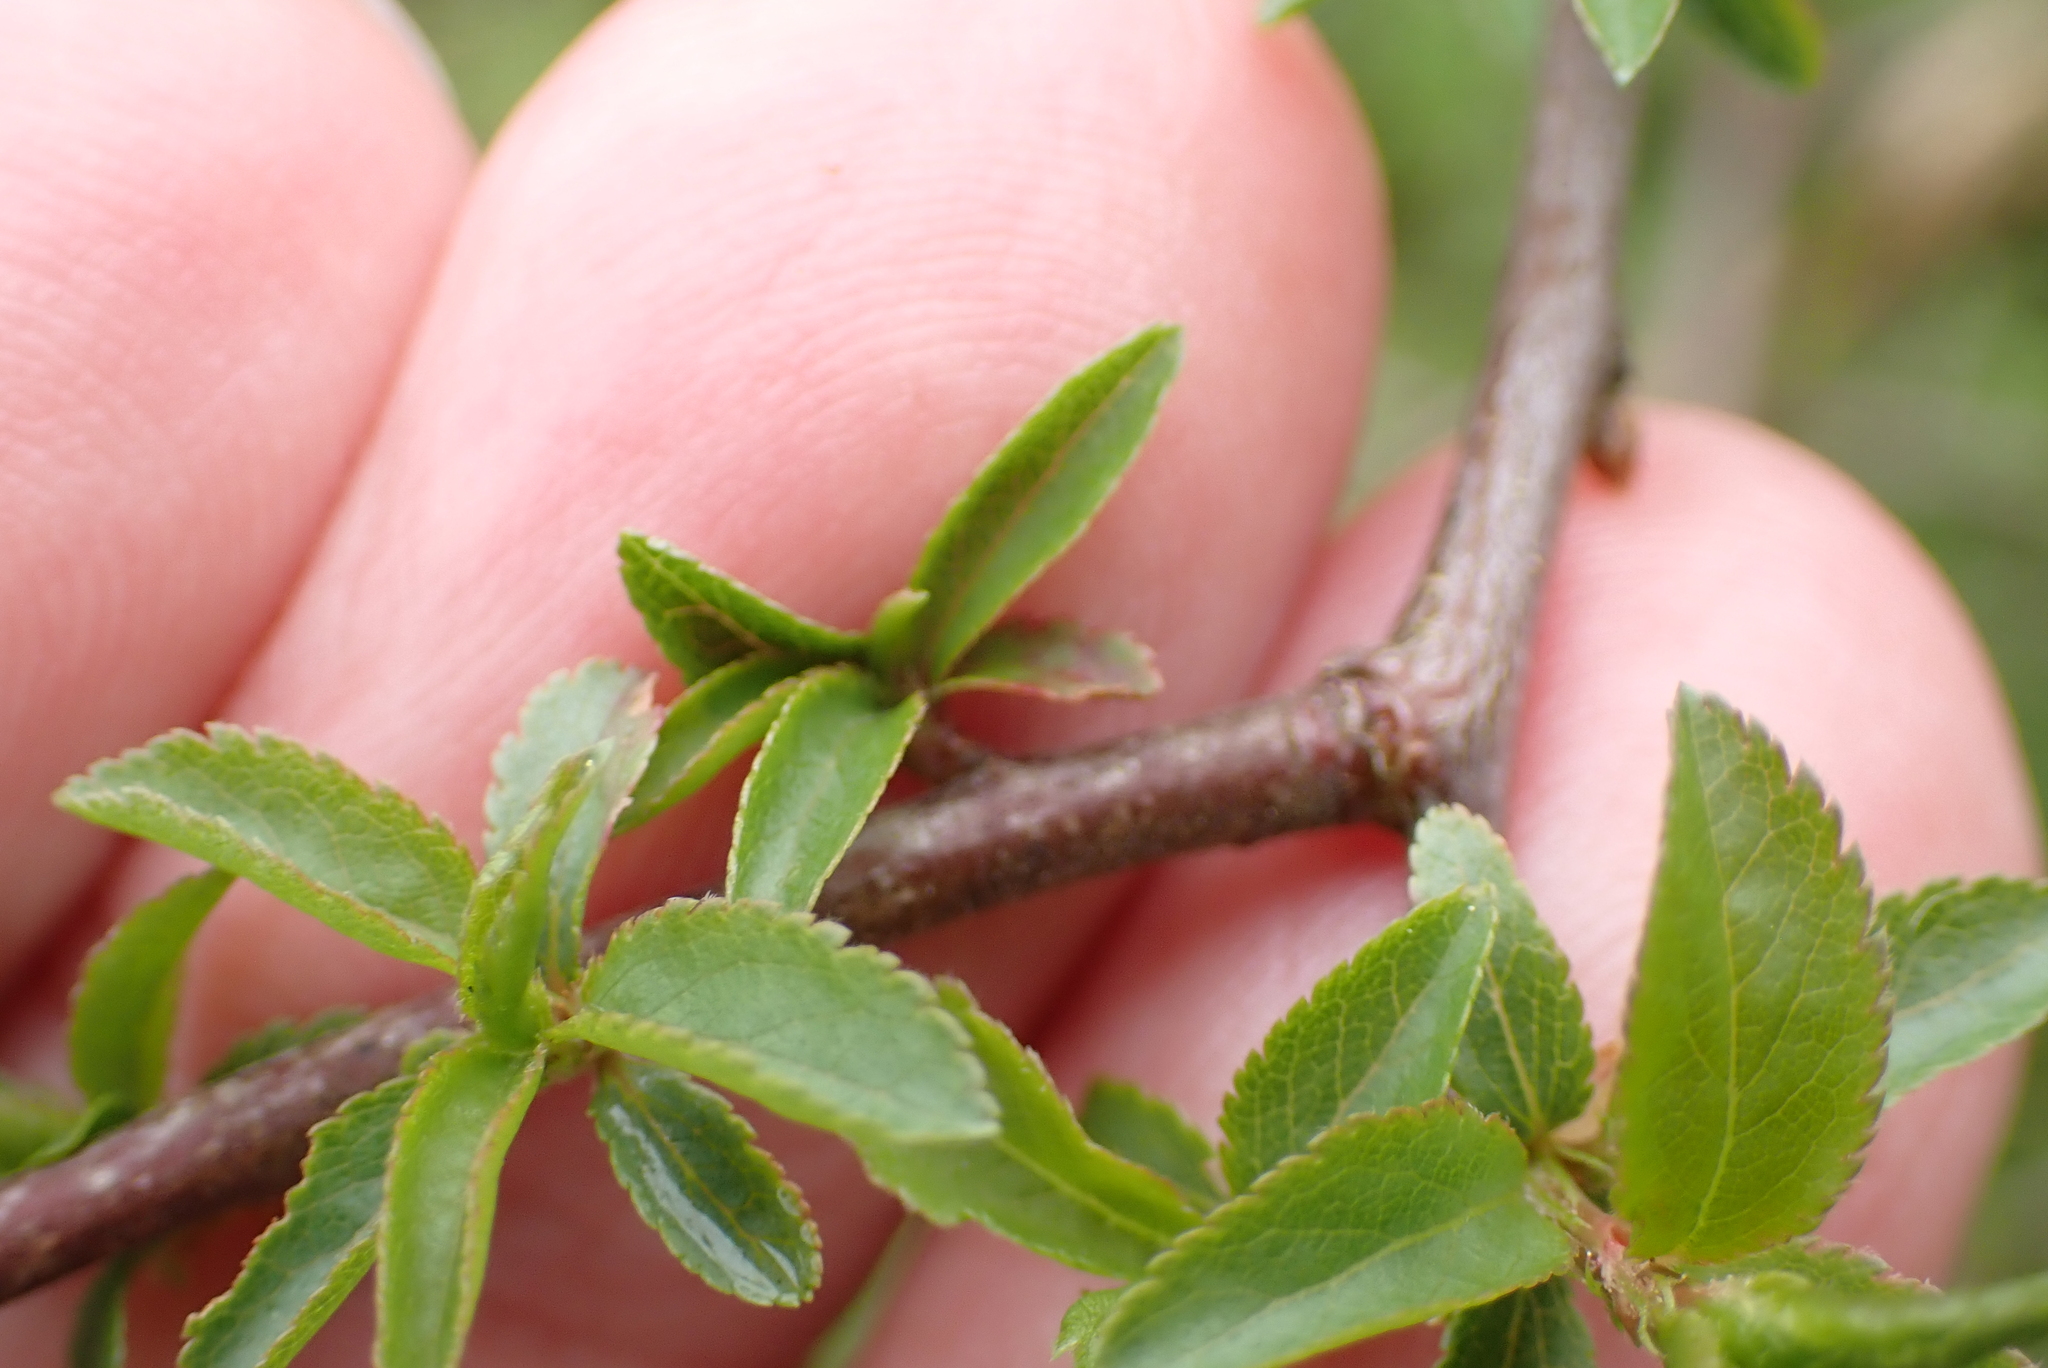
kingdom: Plantae
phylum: Tracheophyta
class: Magnoliopsida
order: Rosales
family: Rosaceae
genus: Prunus
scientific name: Prunus spinosa
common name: Blackthorn
